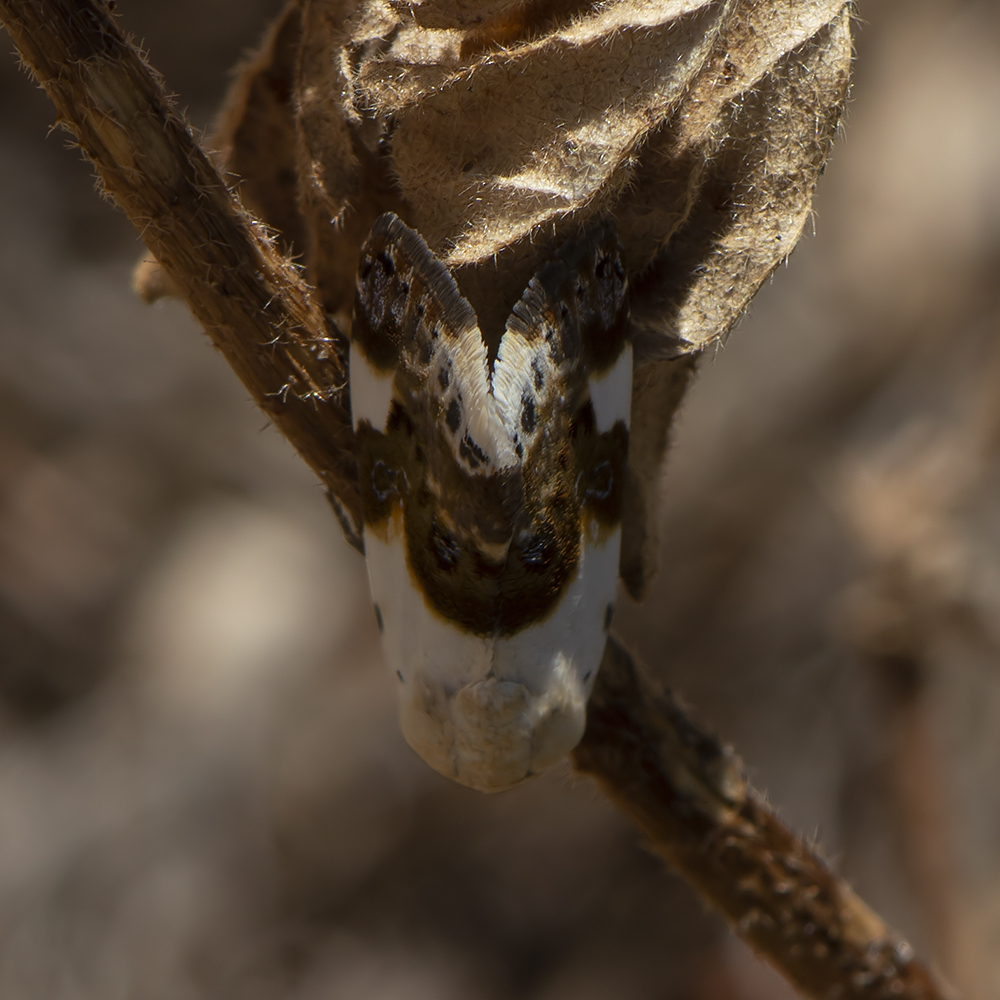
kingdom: Animalia
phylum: Arthropoda
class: Insecta
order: Lepidoptera
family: Noctuidae
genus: Acontia
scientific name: Acontia lucida
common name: Pale shoulder
